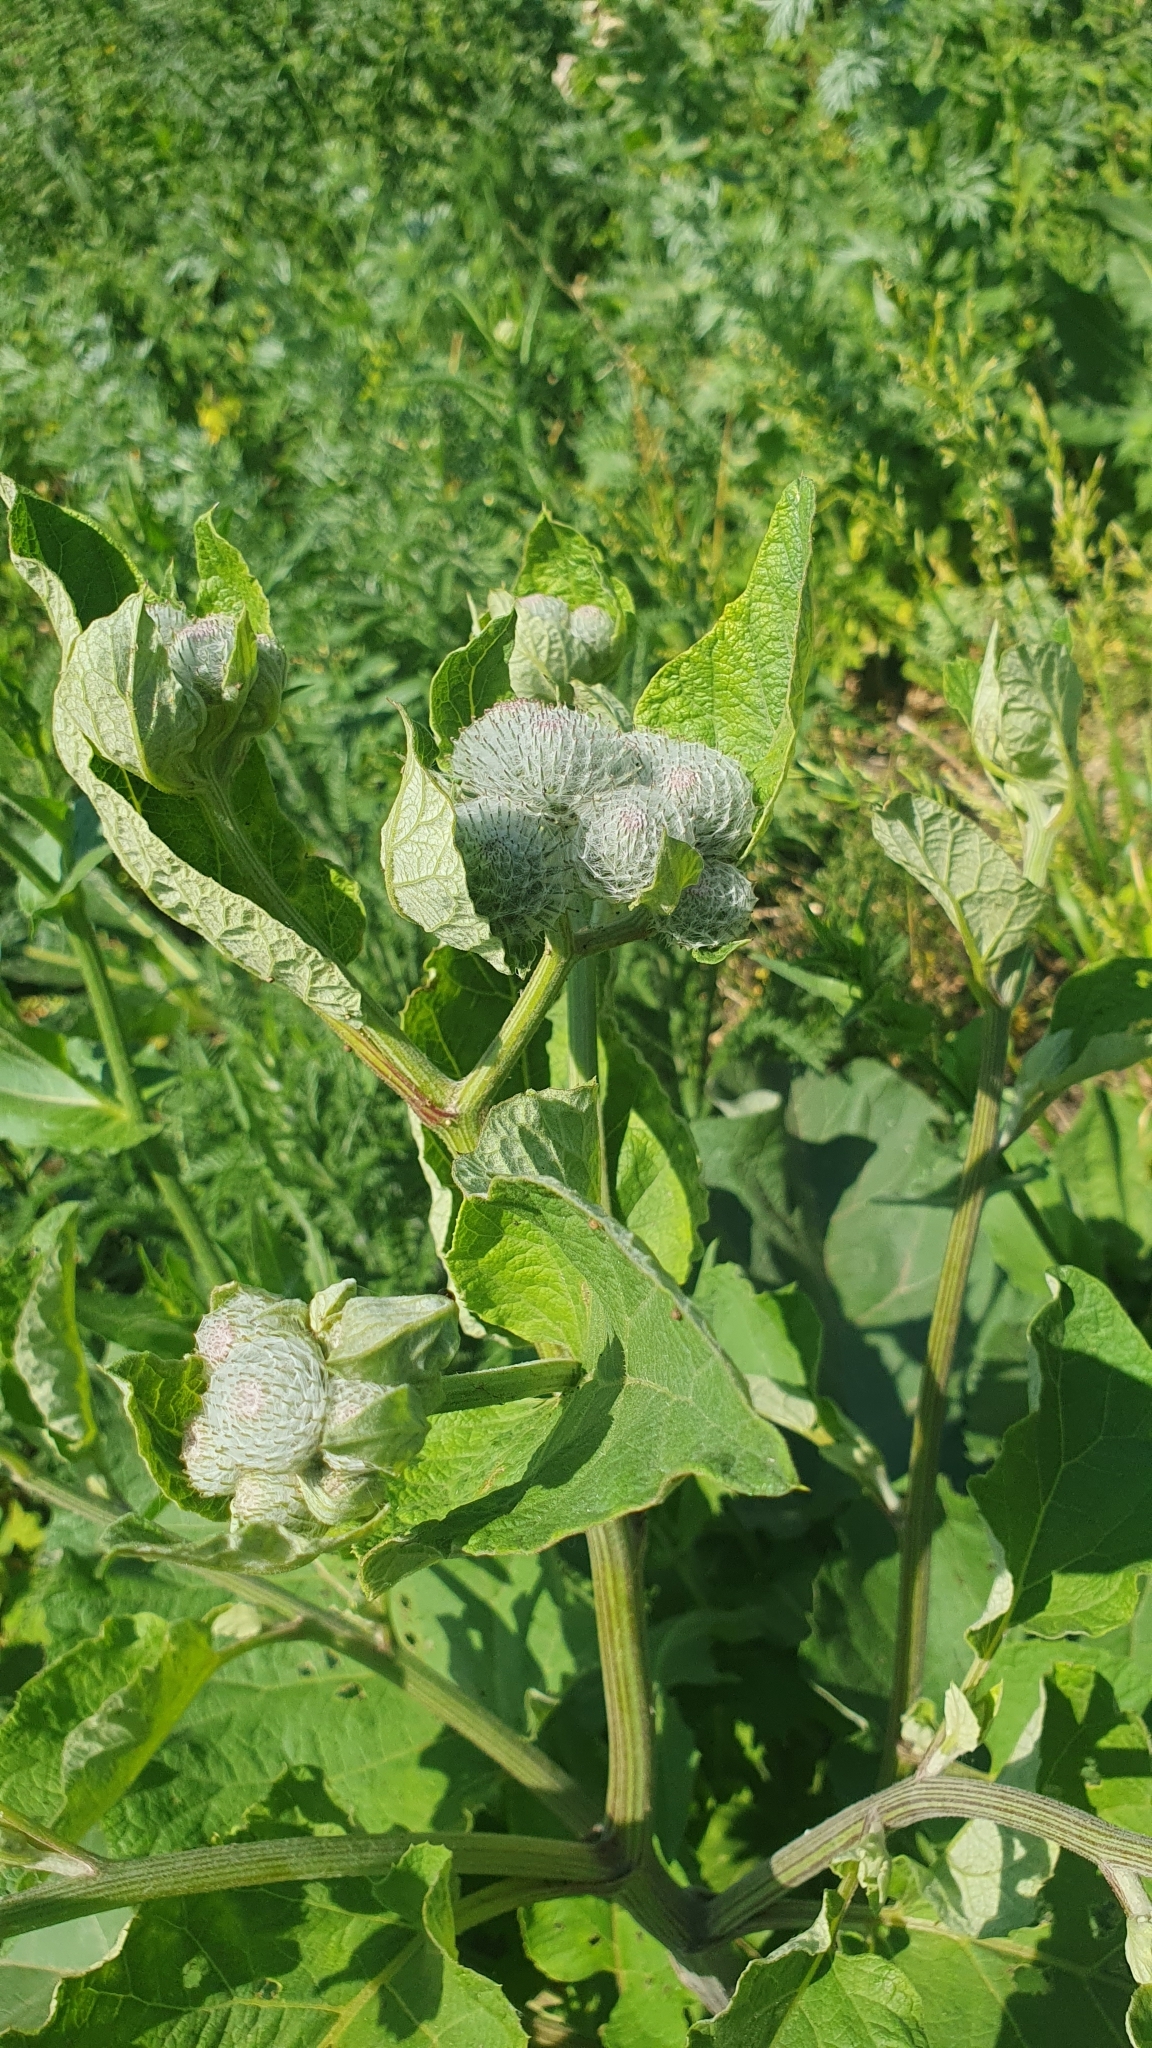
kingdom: Plantae
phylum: Tracheophyta
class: Magnoliopsida
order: Asterales
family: Asteraceae
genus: Arctium
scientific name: Arctium tomentosum
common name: Woolly burdock
